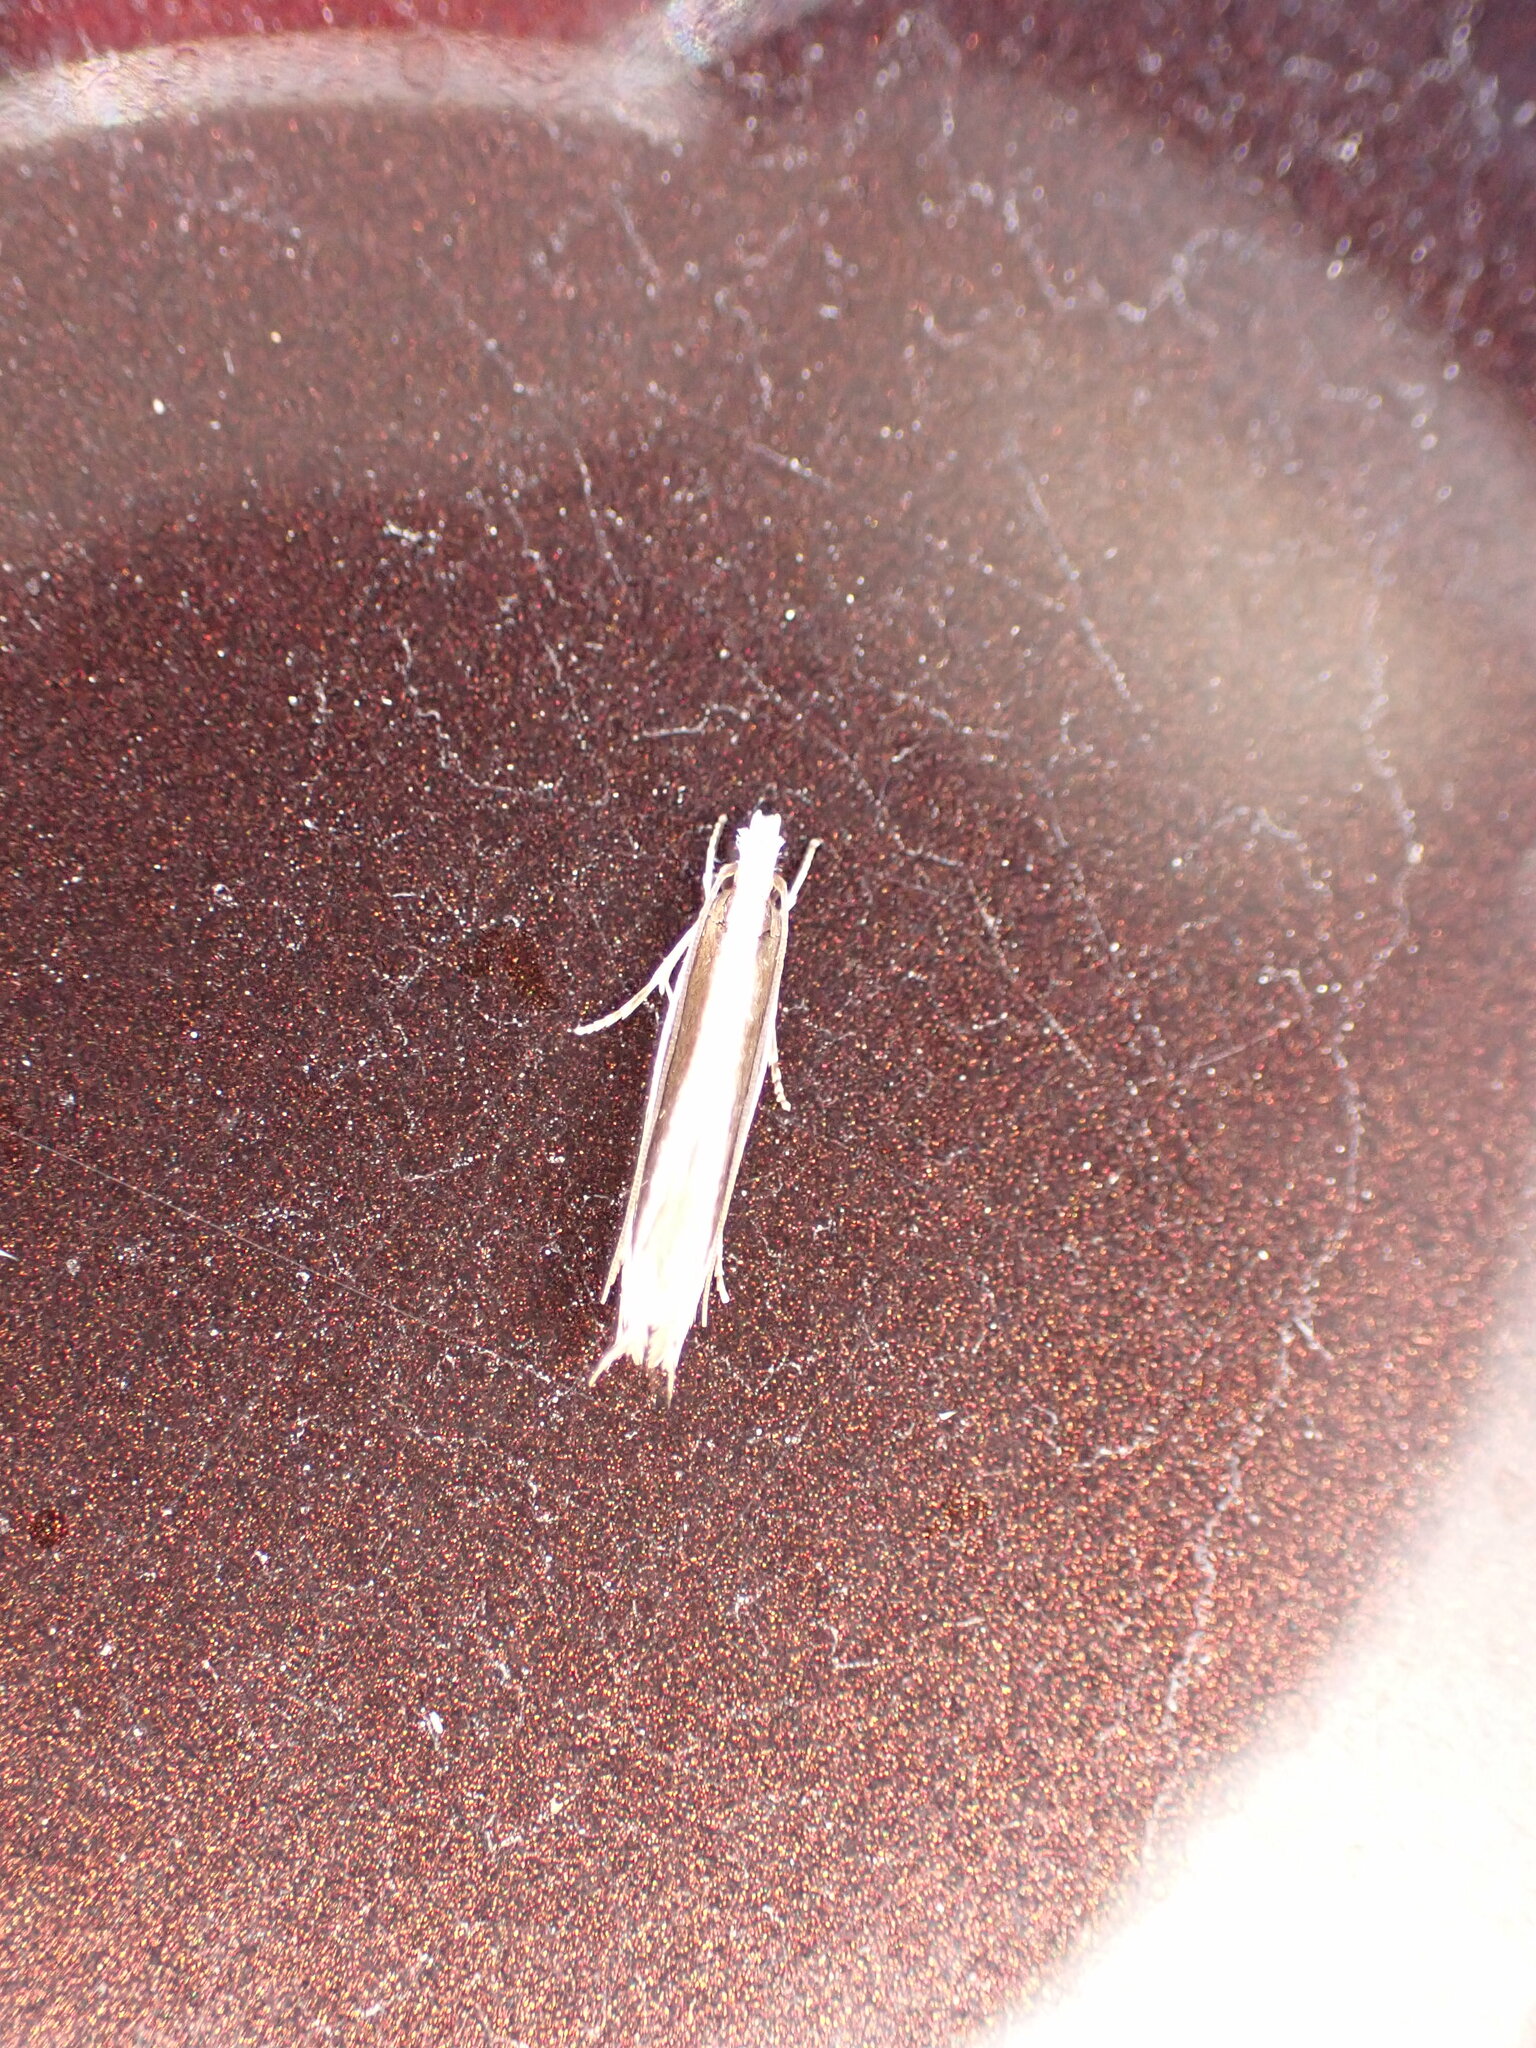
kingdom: Animalia
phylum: Arthropoda
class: Insecta
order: Lepidoptera
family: Tineidae
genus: Erechthias
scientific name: Erechthias stilbella
